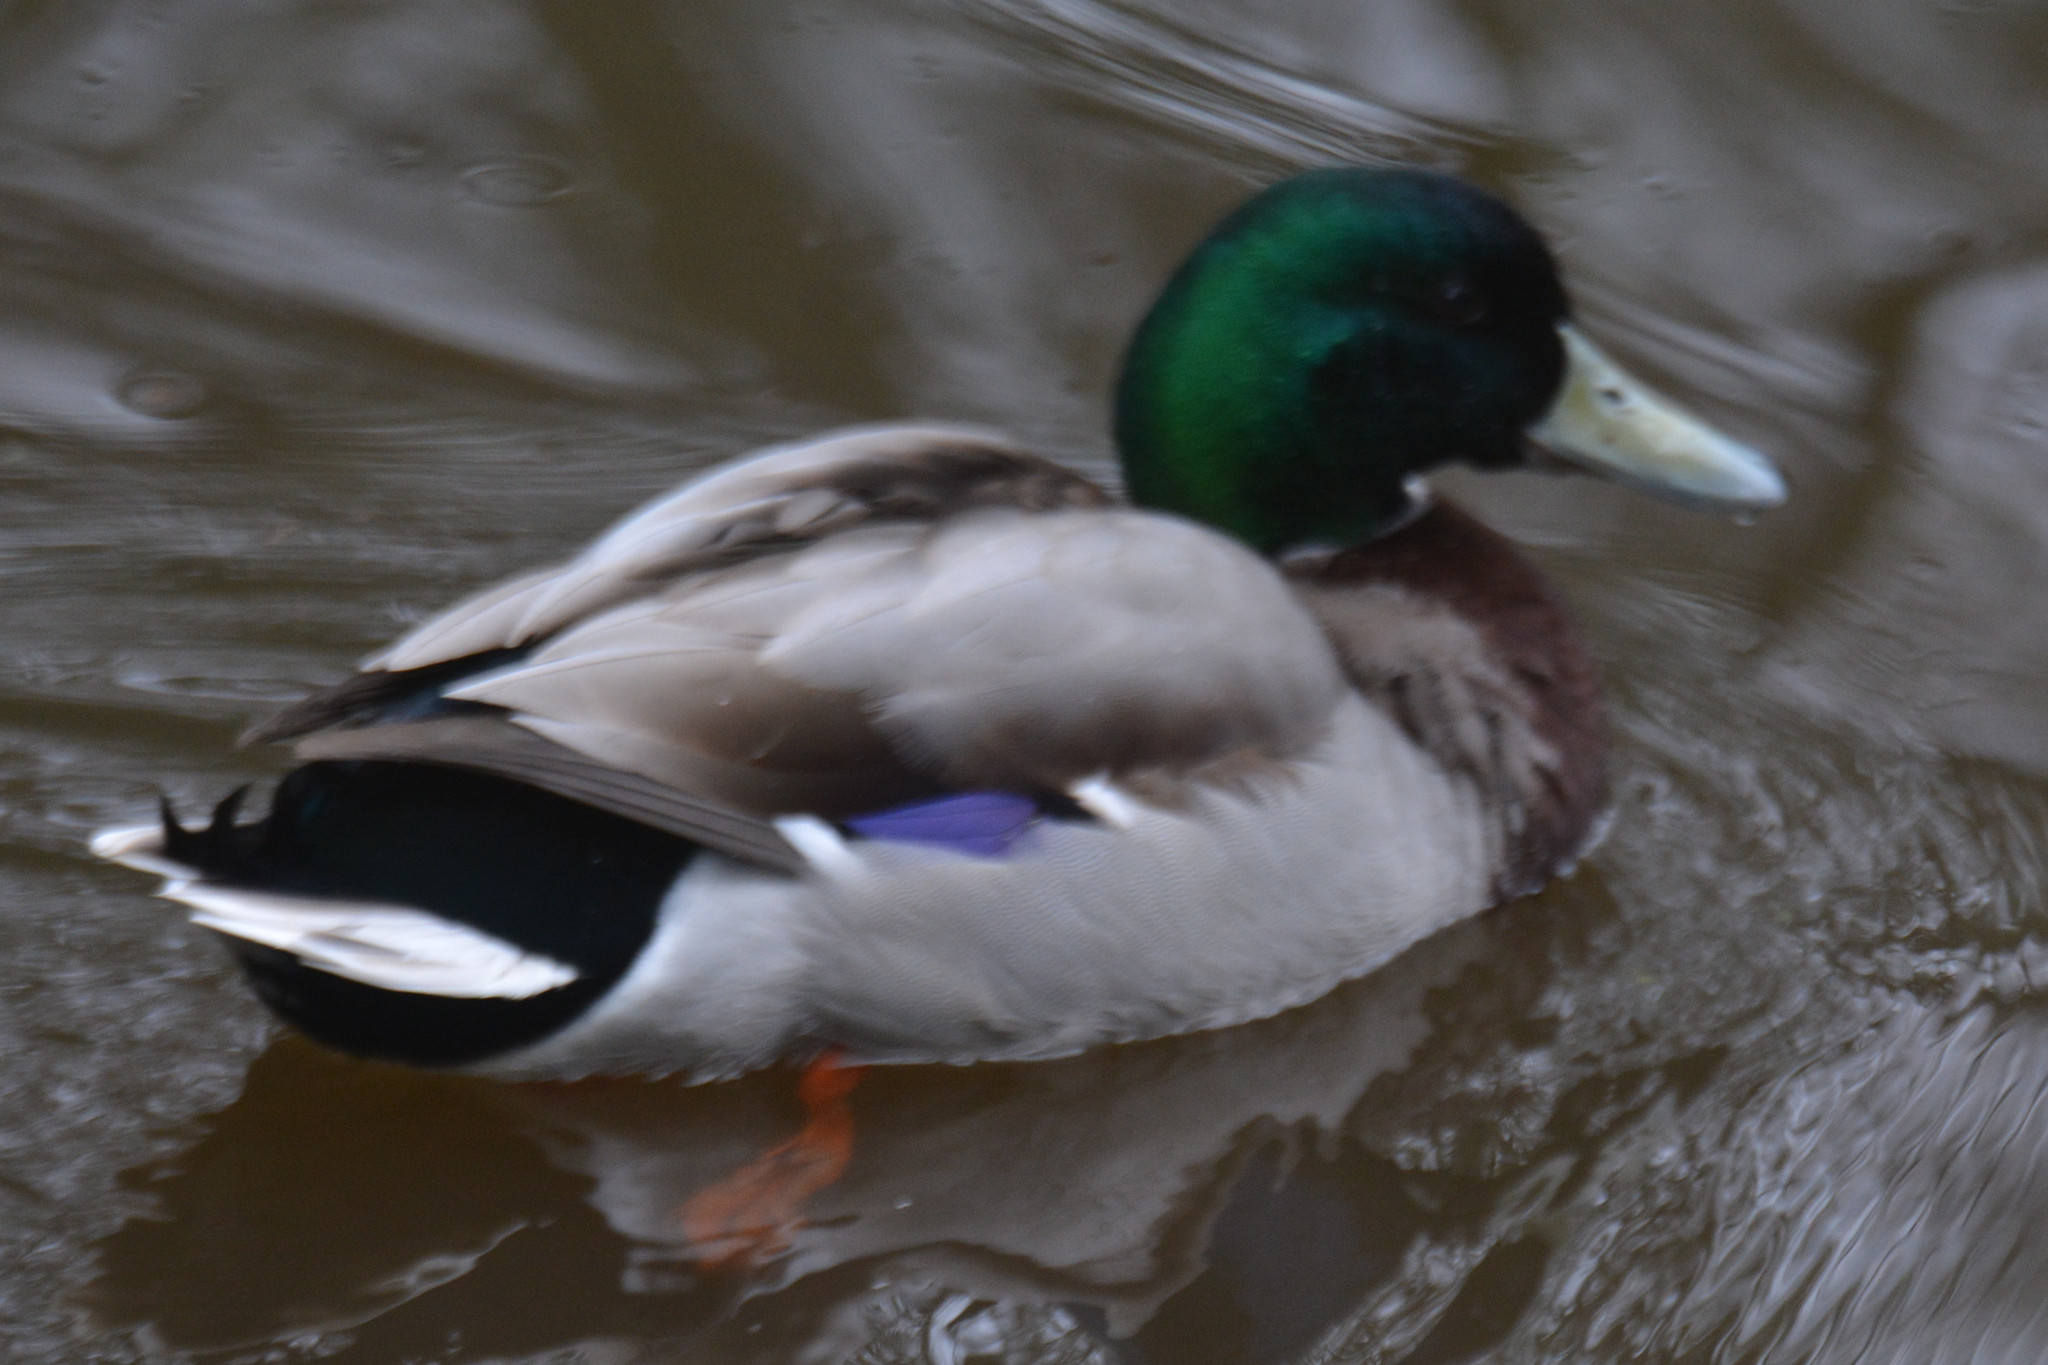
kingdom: Animalia
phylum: Chordata
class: Aves
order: Anseriformes
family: Anatidae
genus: Anas
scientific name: Anas platyrhynchos
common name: Mallard
